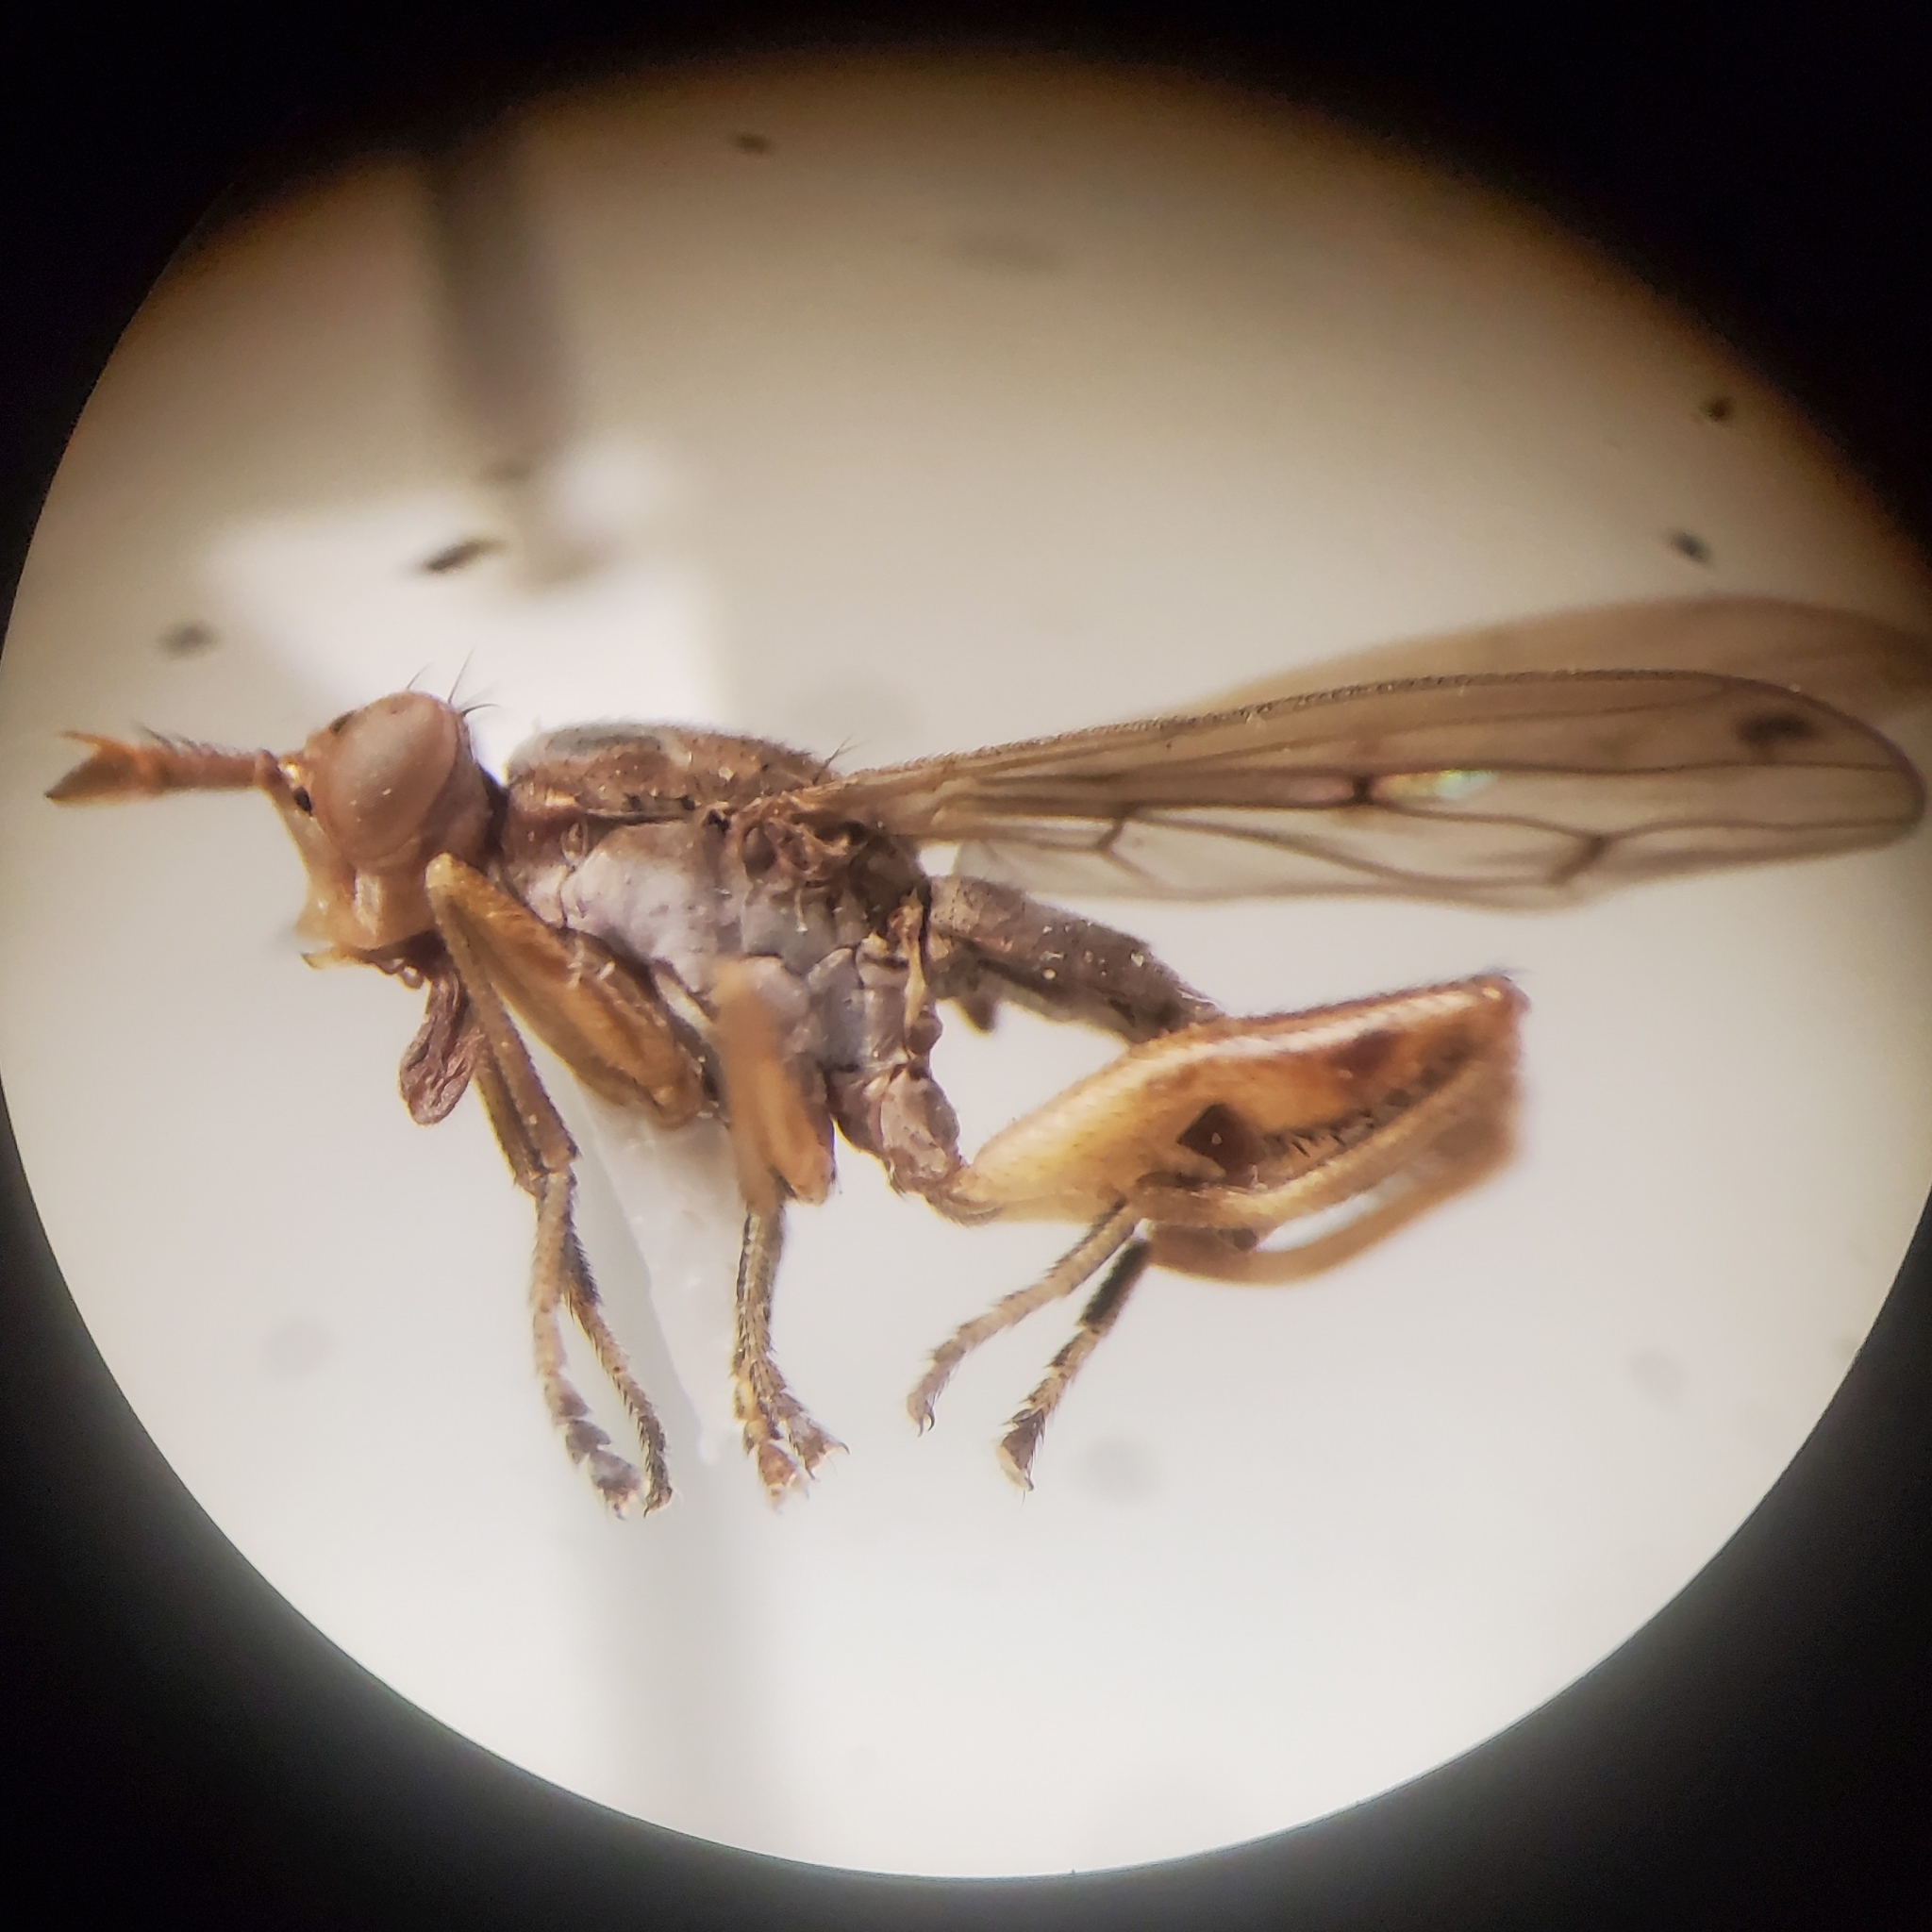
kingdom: Animalia
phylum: Arthropoda
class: Insecta
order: Diptera
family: Sciomyzidae
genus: Sepedon
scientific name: Sepedon armipes
